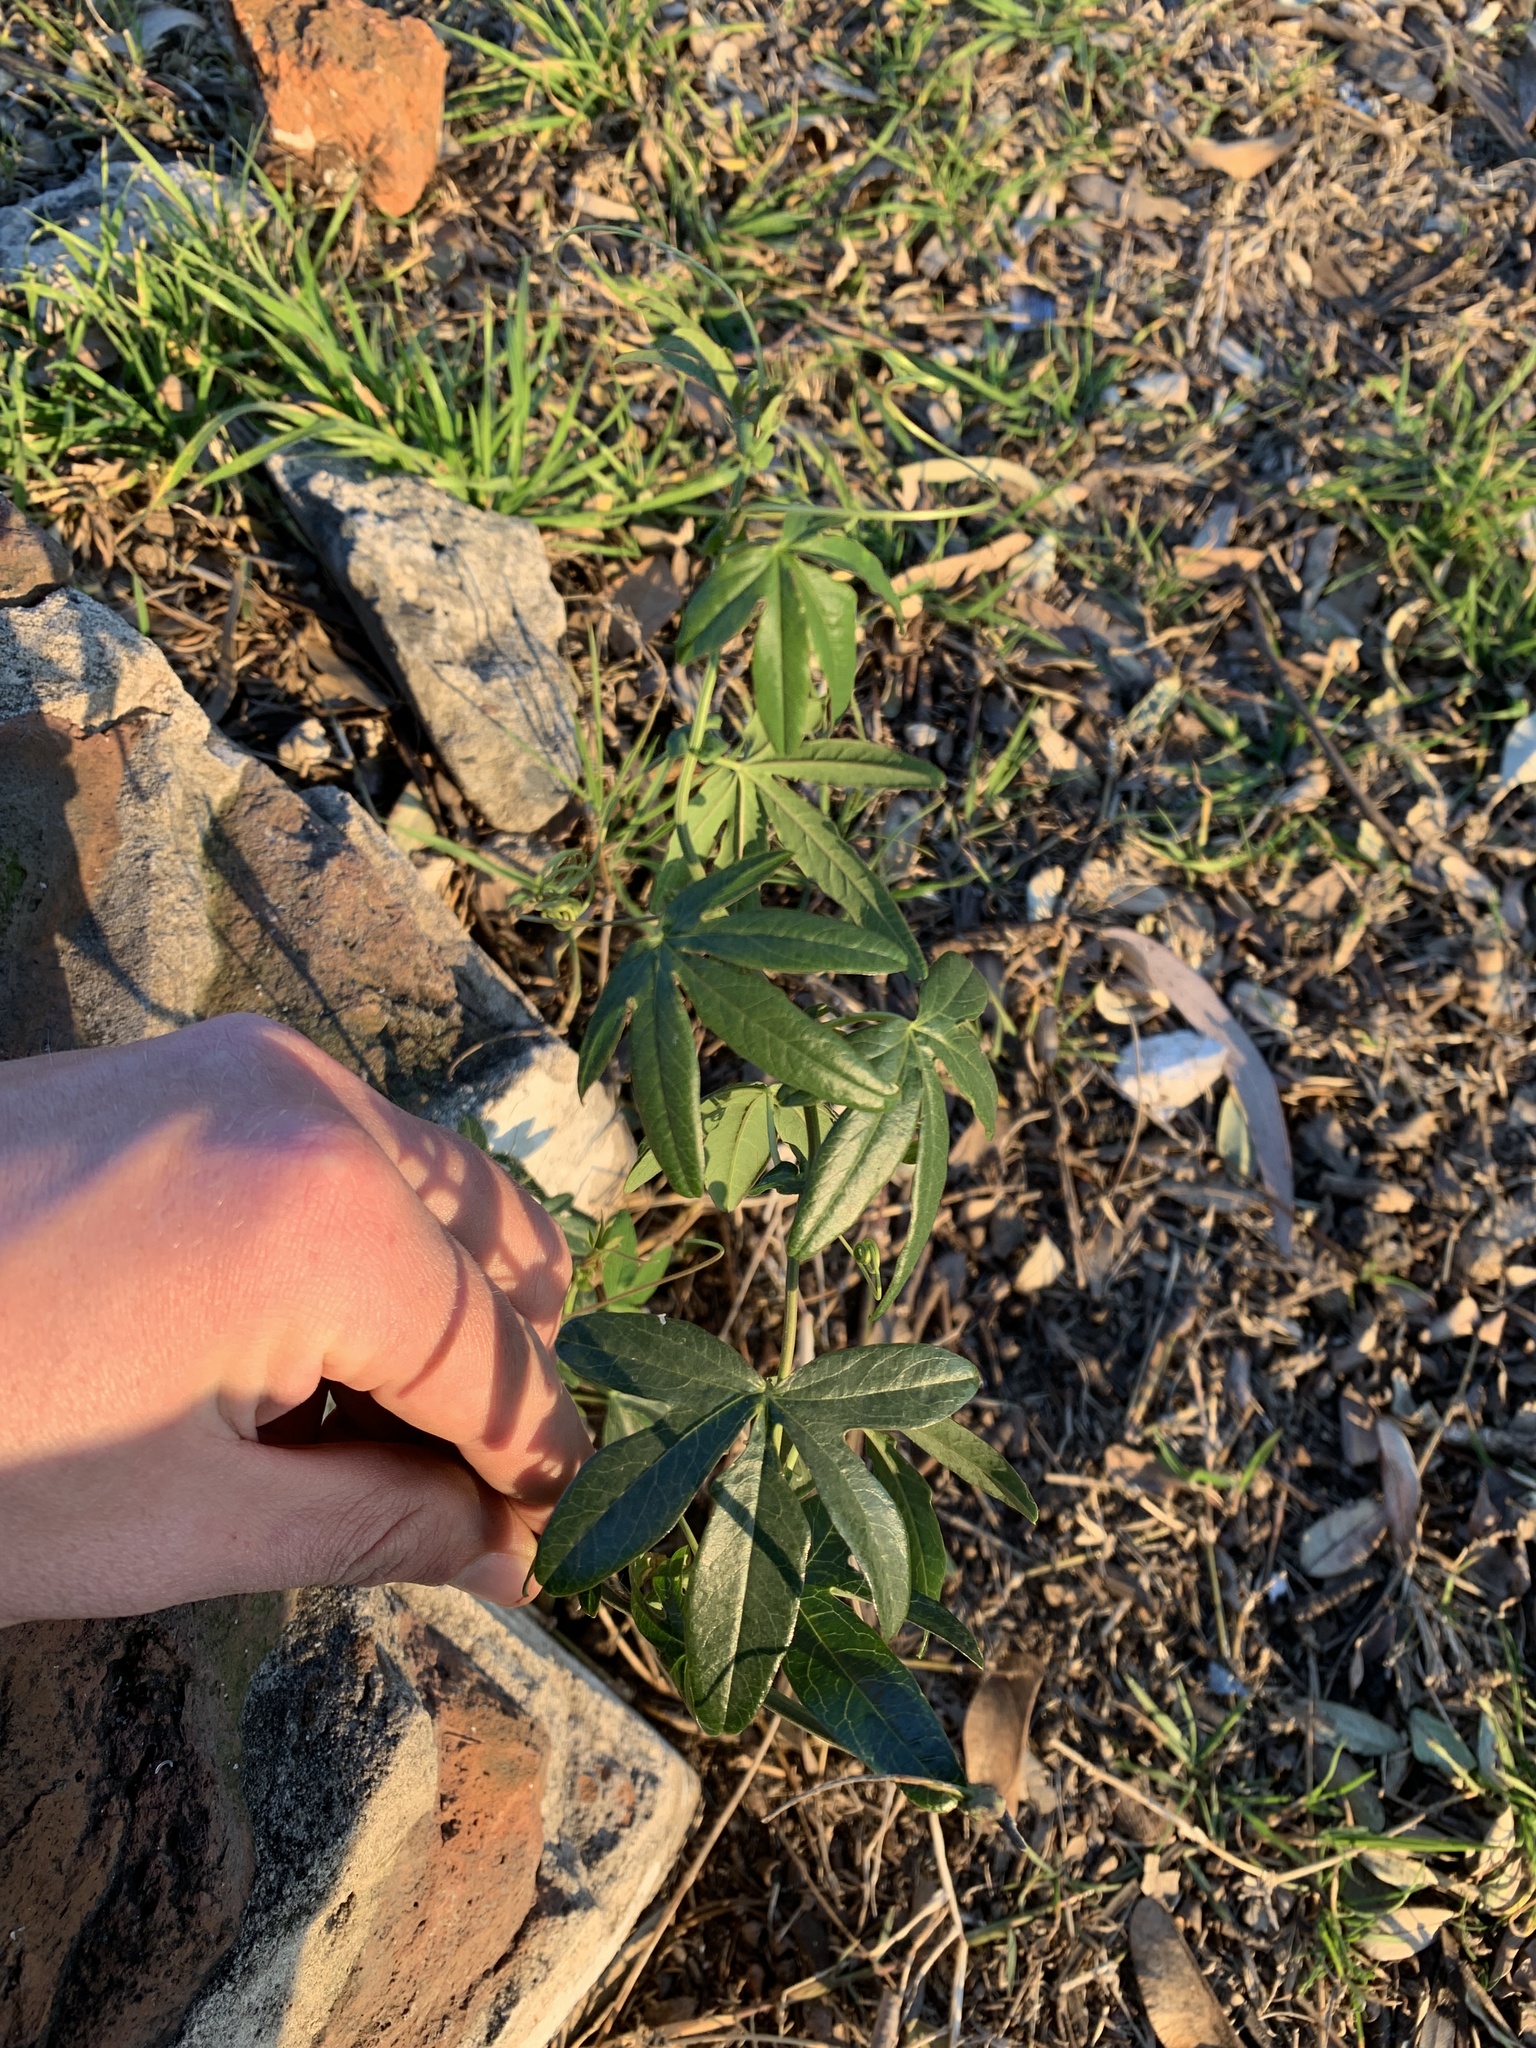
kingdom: Plantae
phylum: Tracheophyta
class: Magnoliopsida
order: Malpighiales
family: Passifloraceae
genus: Passiflora
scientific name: Passiflora caerulea
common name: Blue passionflower
